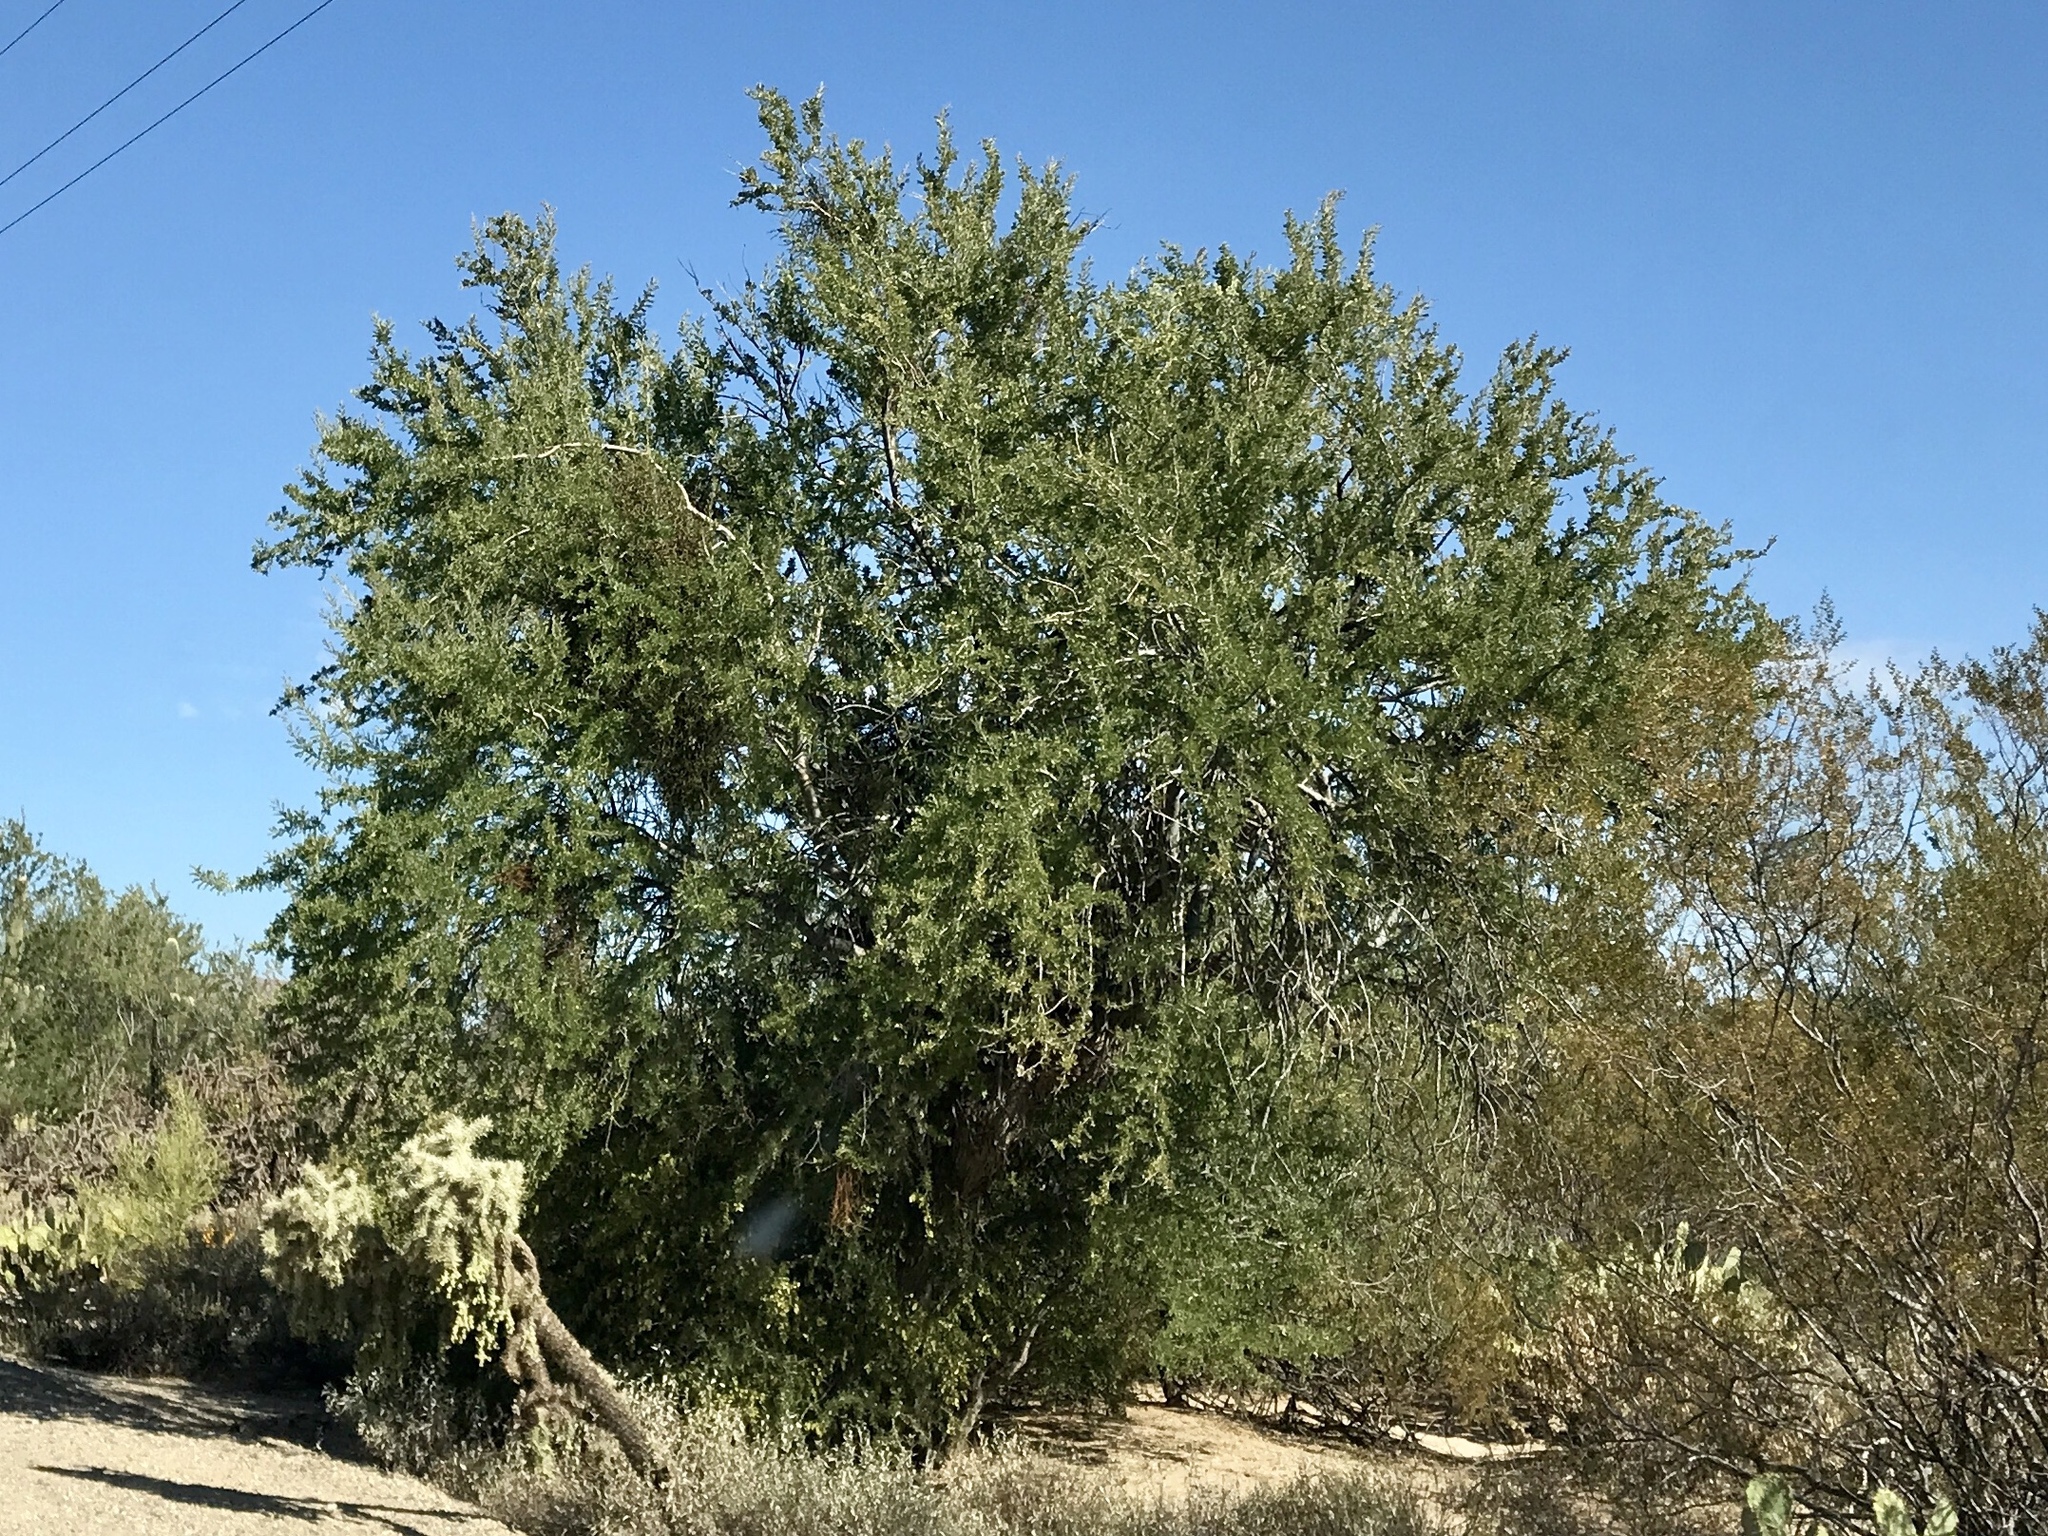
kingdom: Plantae
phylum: Tracheophyta
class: Magnoliopsida
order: Fabales
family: Fabaceae
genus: Olneya
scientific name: Olneya tesota
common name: Desert ironwood
